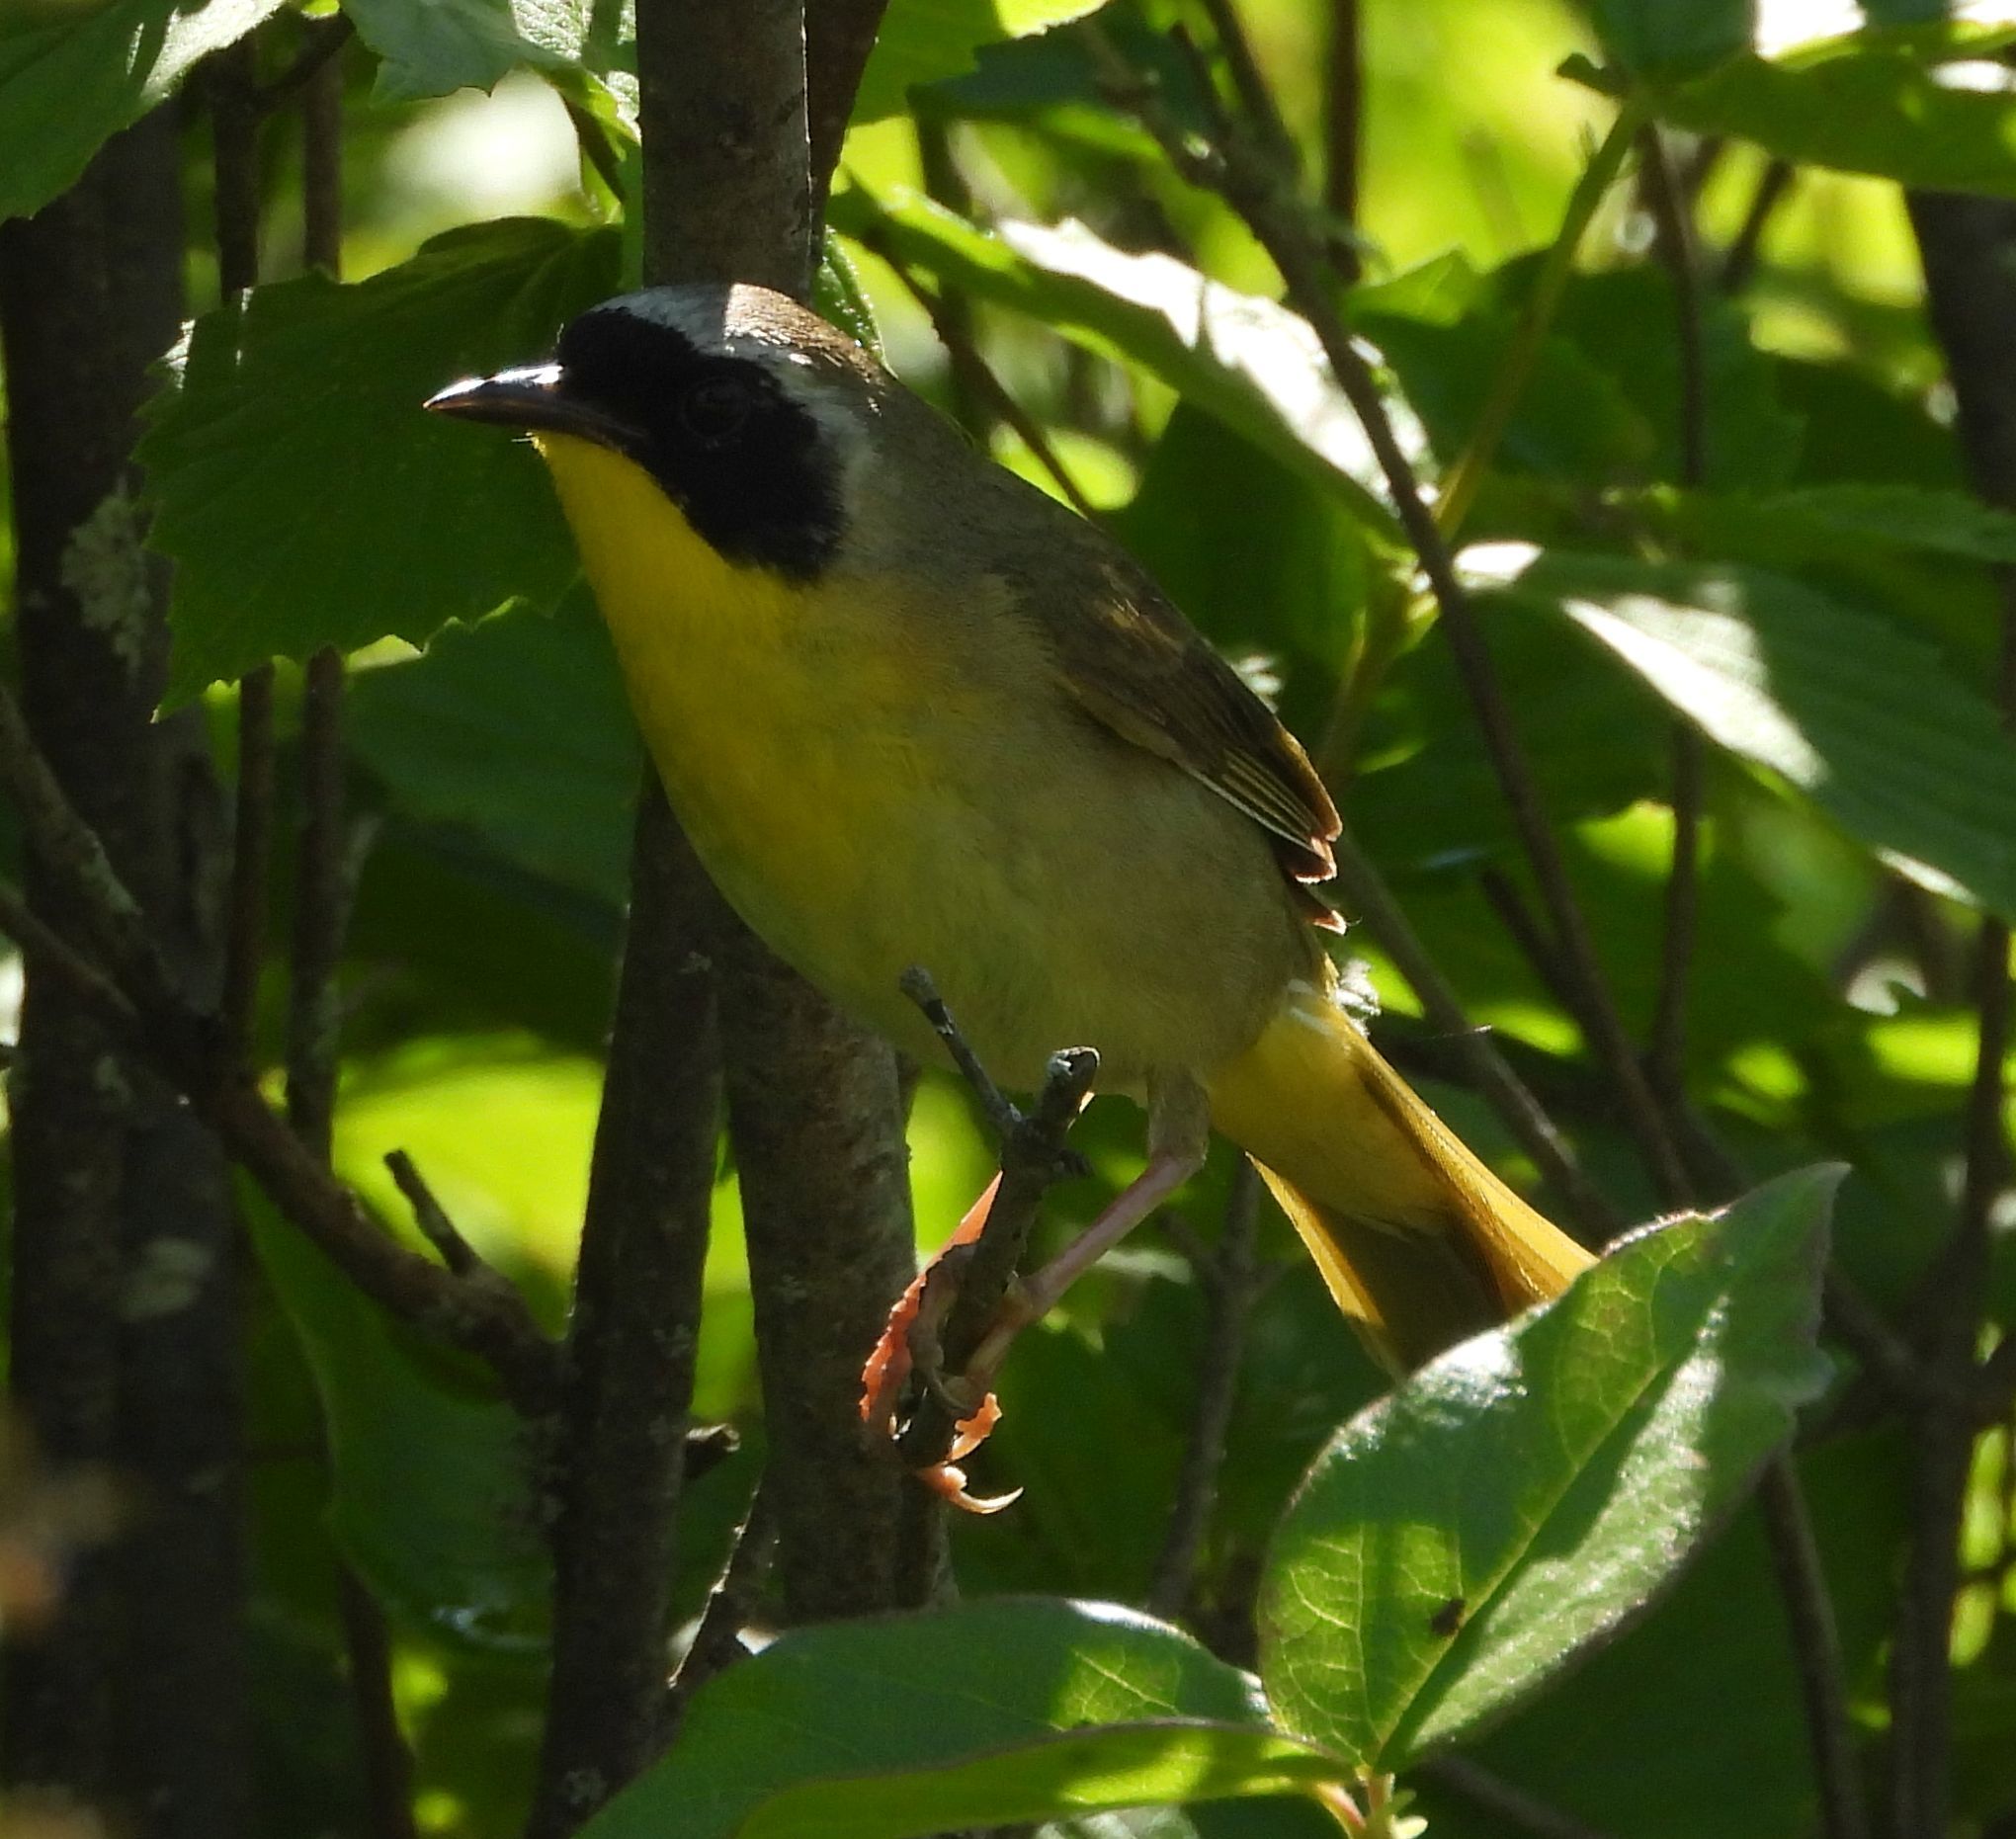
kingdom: Animalia
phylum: Chordata
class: Aves
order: Passeriformes
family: Parulidae
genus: Geothlypis
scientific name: Geothlypis trichas
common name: Common yellowthroat
